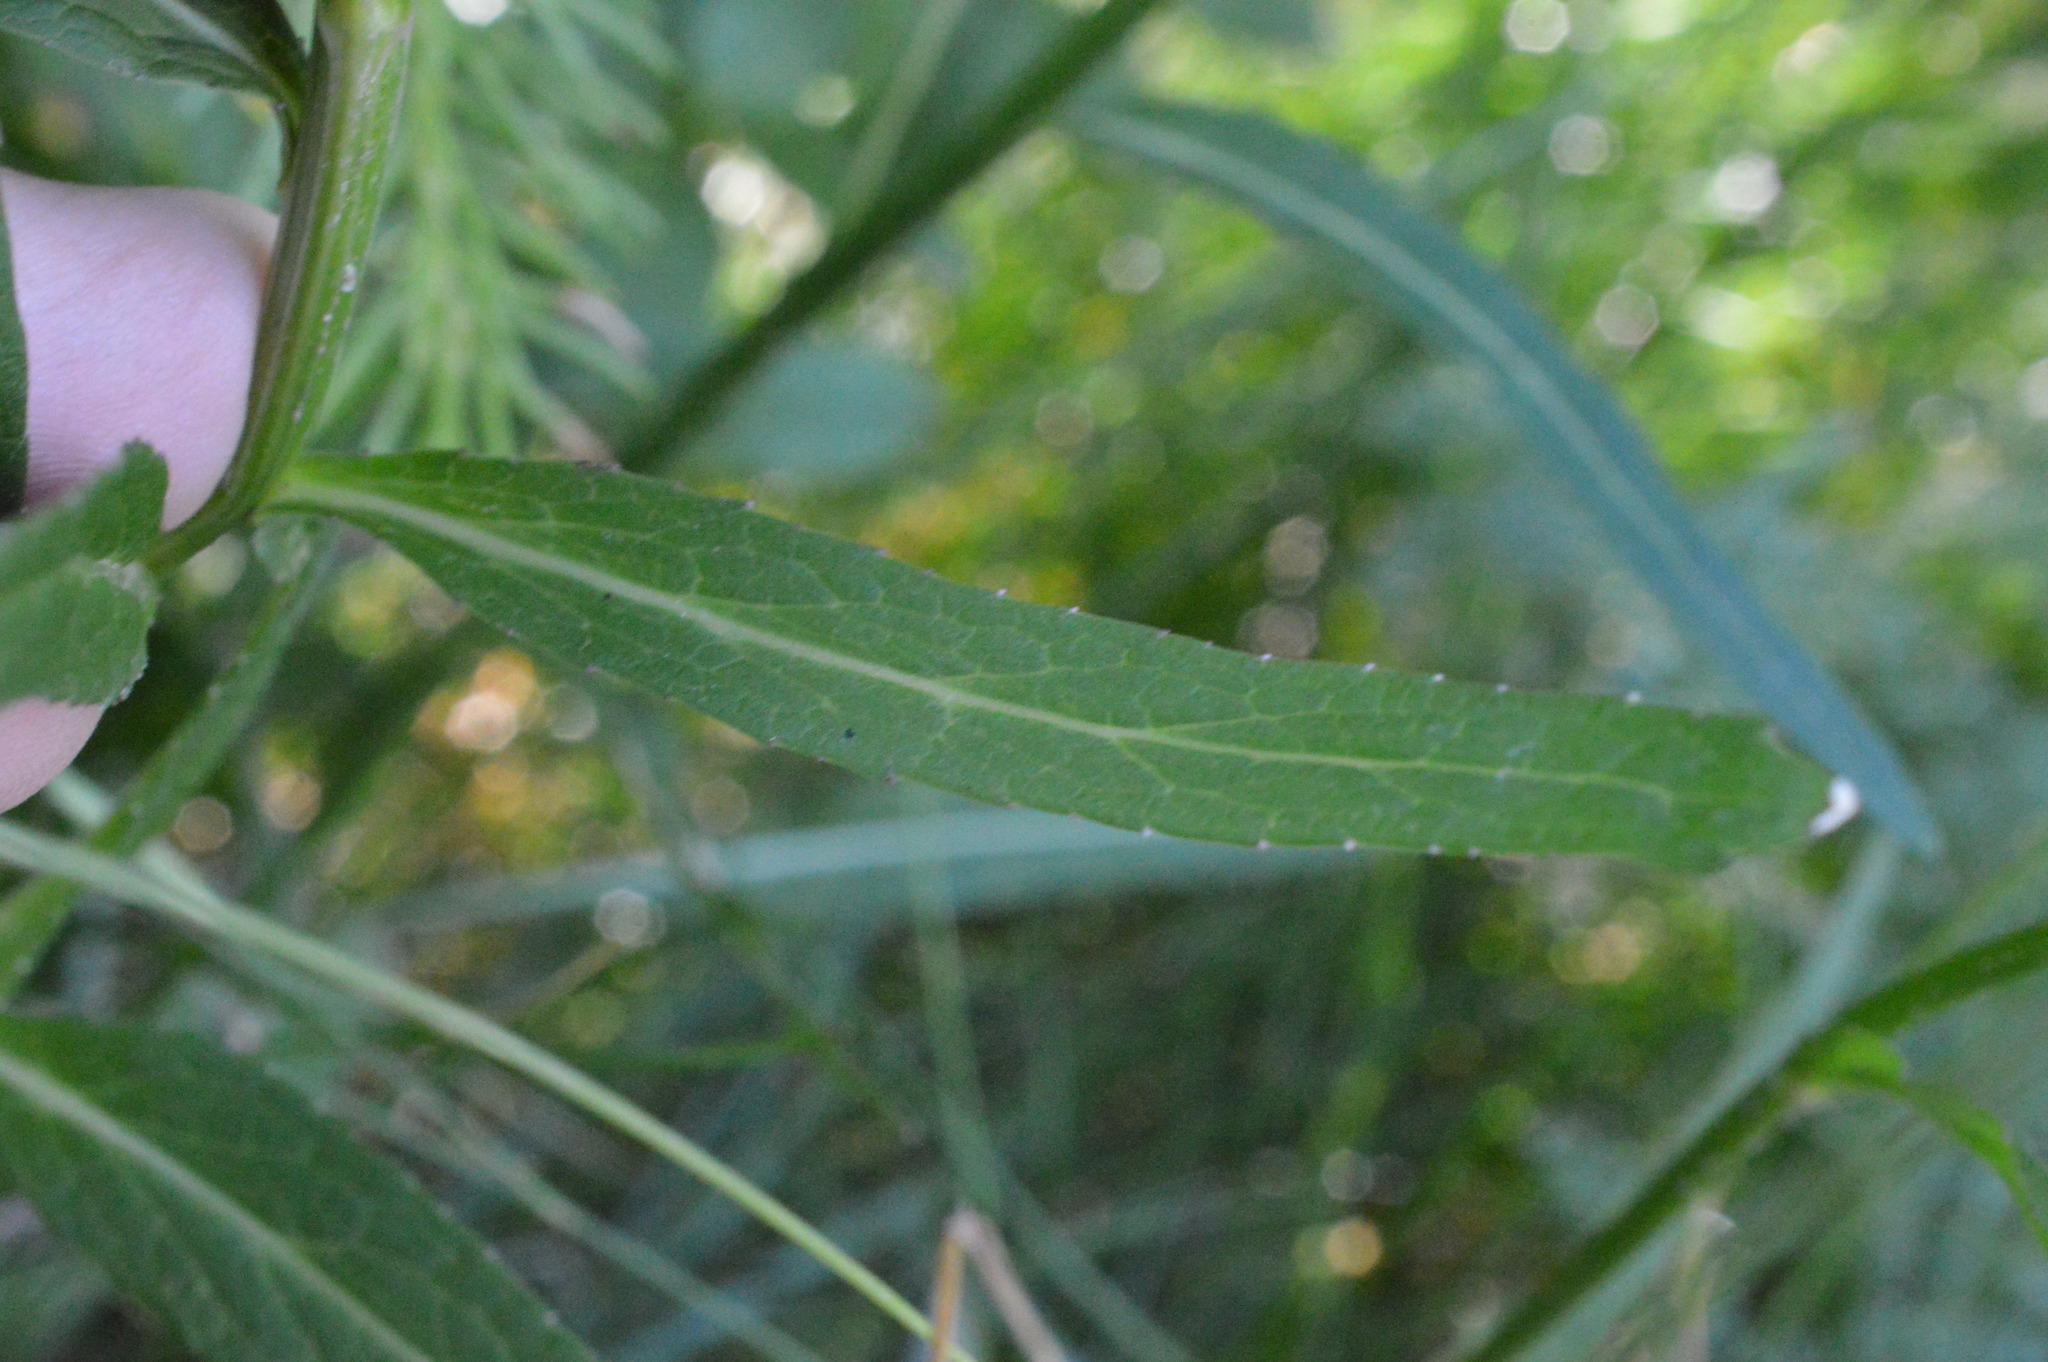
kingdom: Plantae
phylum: Tracheophyta
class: Magnoliopsida
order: Asterales
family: Campanulaceae
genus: Phyteuma
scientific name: Phyteuma betonicifolium
